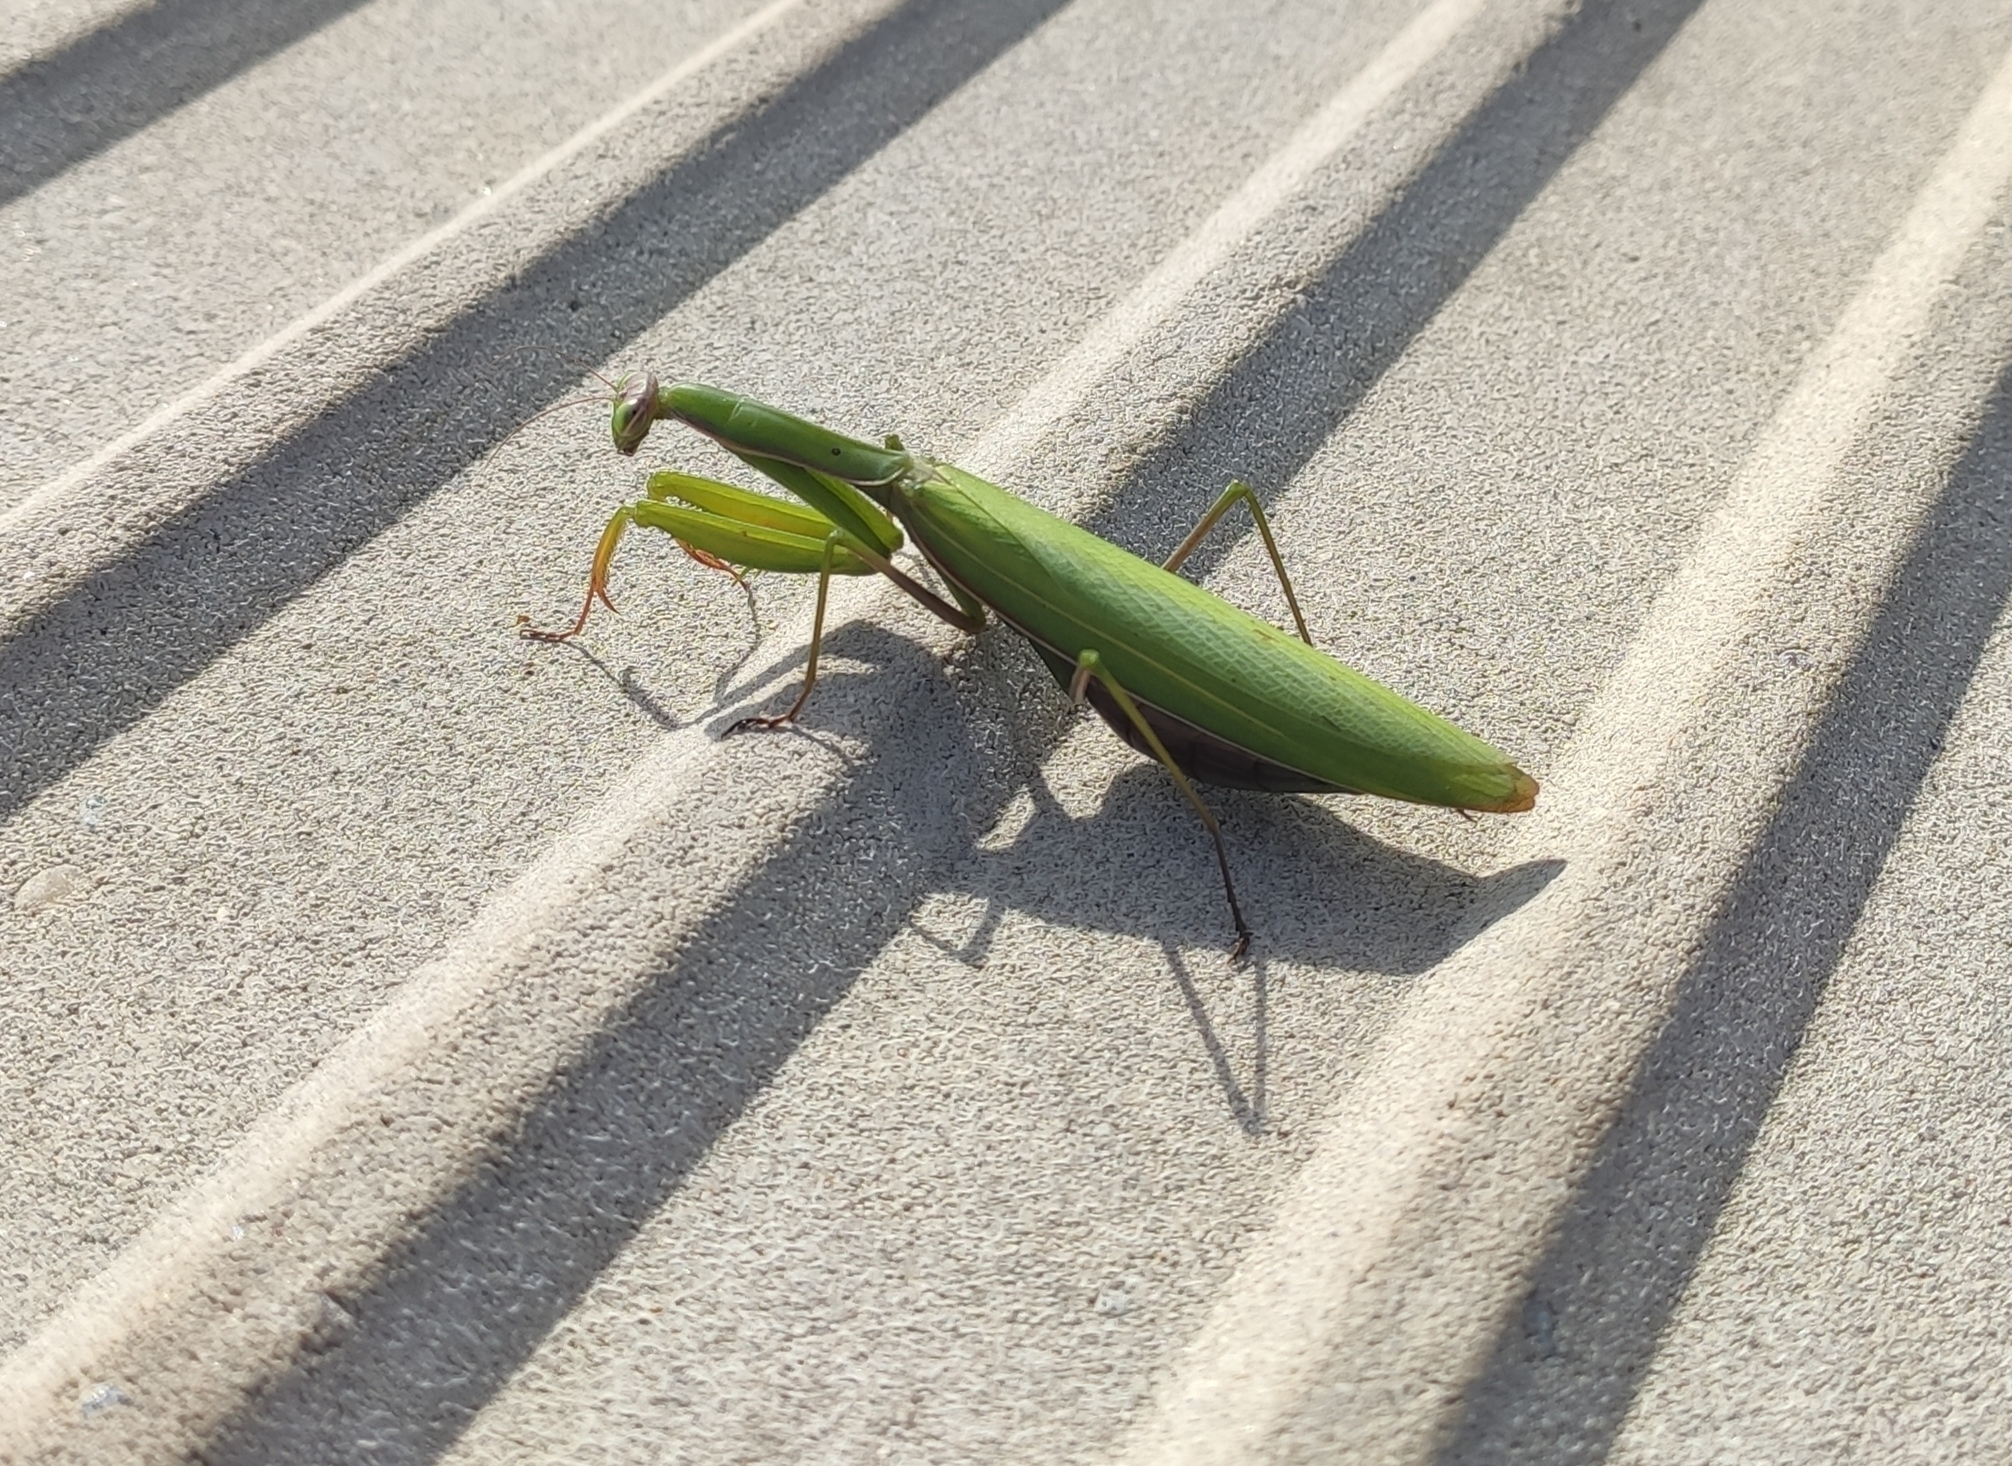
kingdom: Animalia
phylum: Arthropoda
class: Insecta
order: Mantodea
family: Mantidae
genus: Mantis
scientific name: Mantis religiosa
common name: Praying mantis
